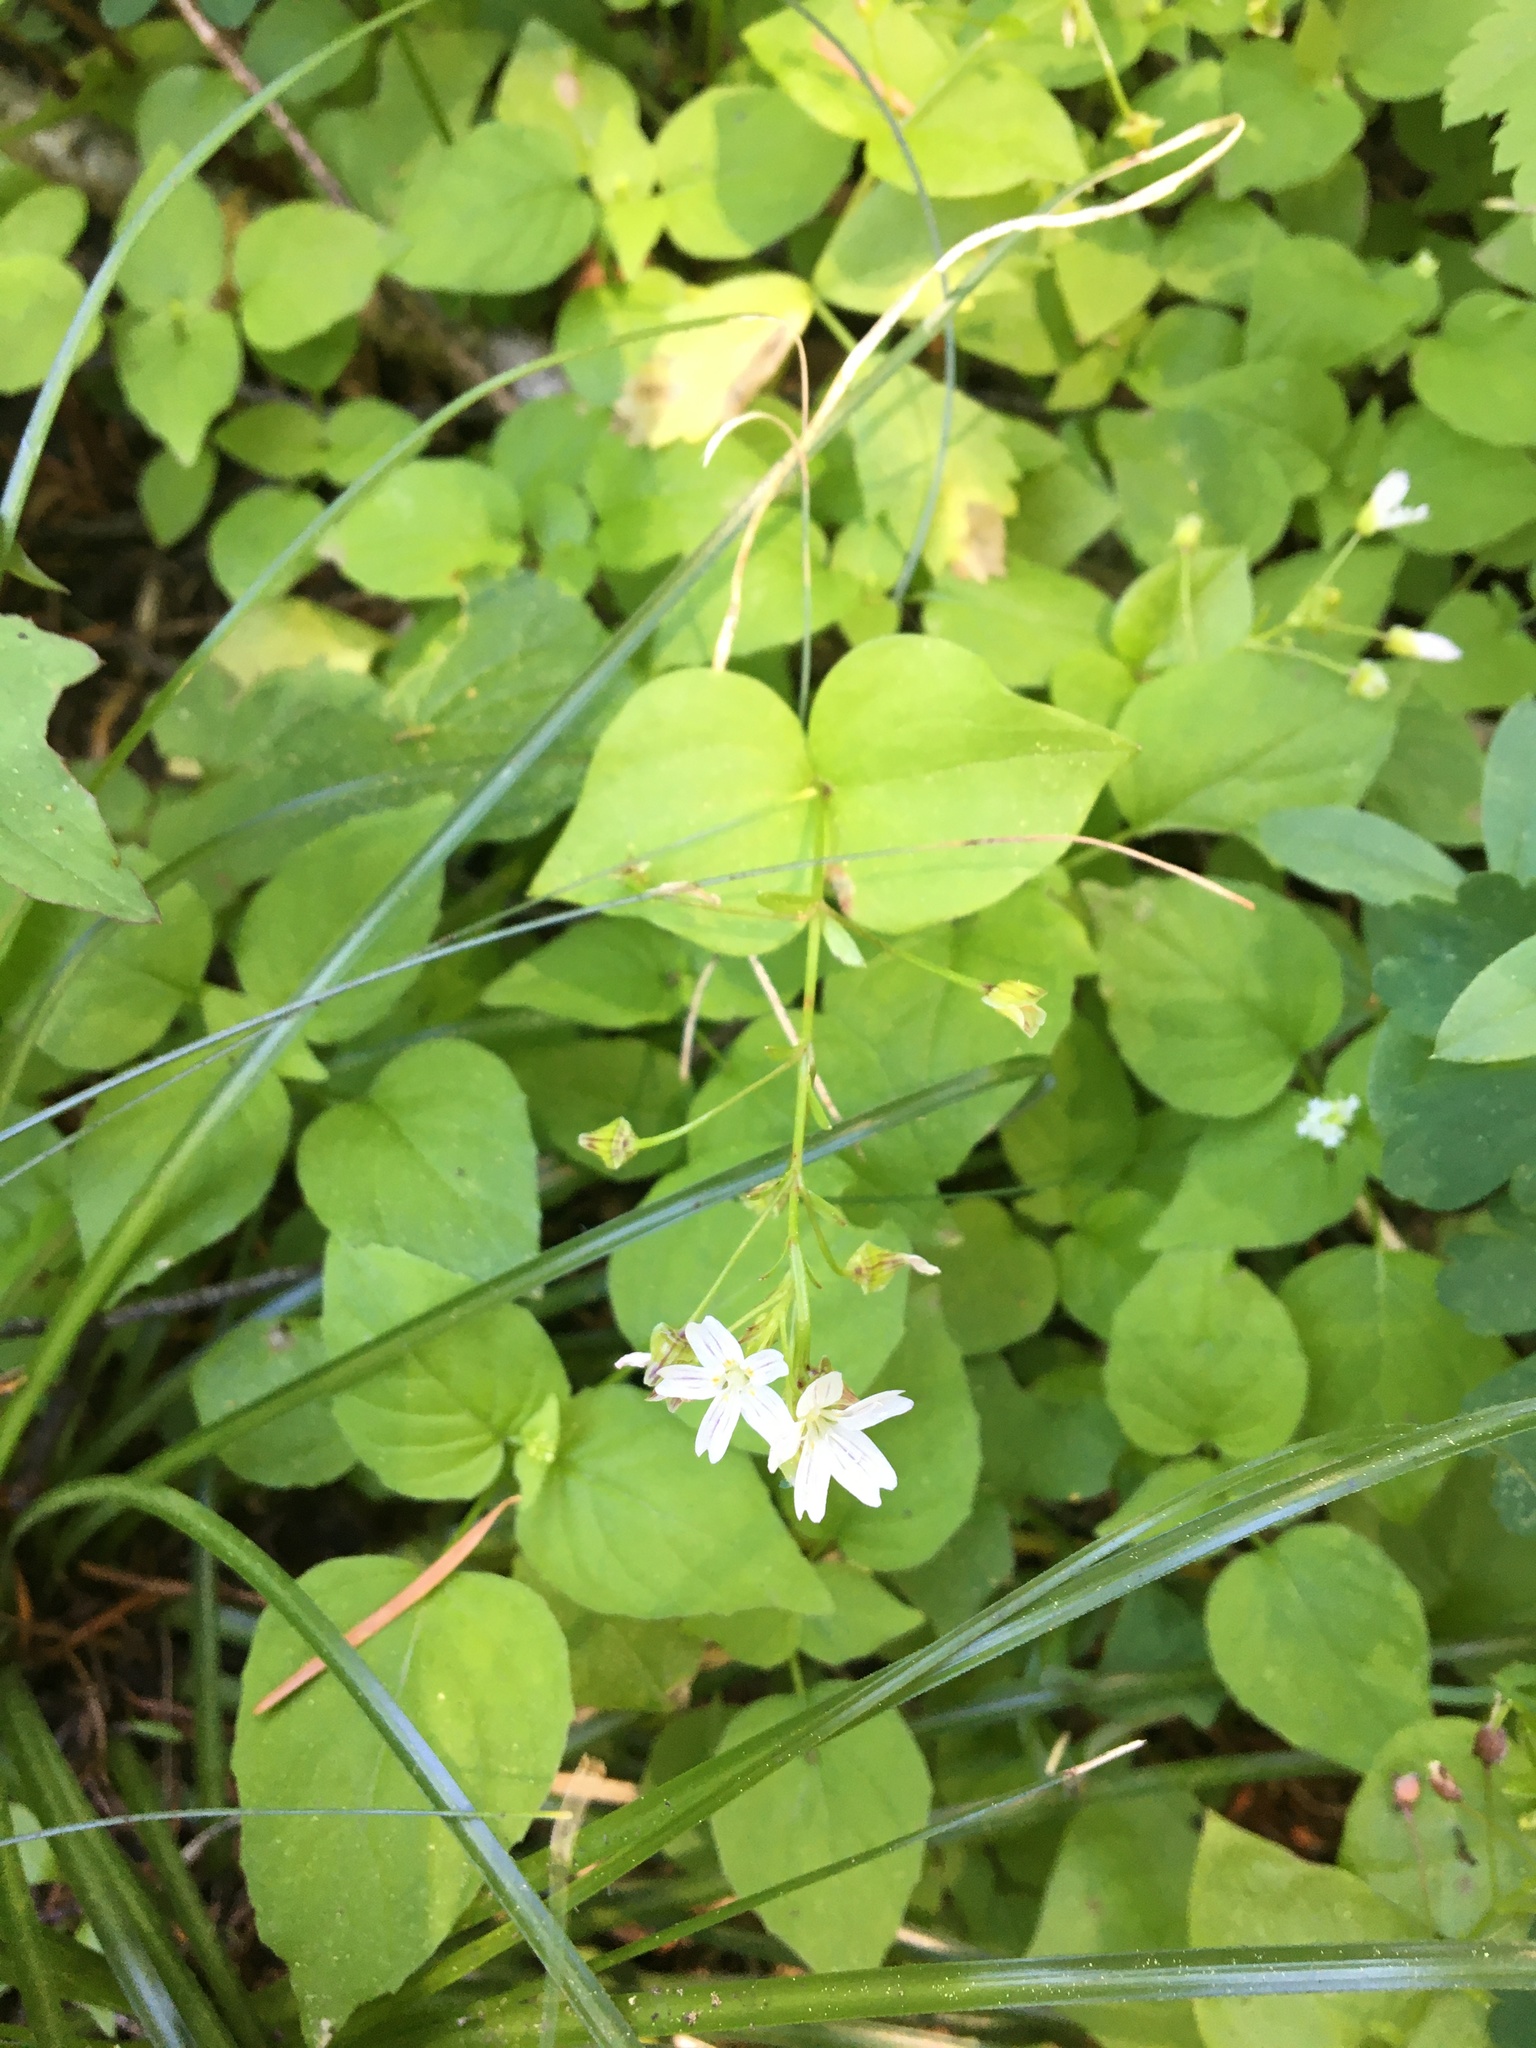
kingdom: Plantae
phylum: Tracheophyta
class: Magnoliopsida
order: Caryophyllales
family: Montiaceae
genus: Claytonia
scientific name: Claytonia sibirica
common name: Pink purslane
